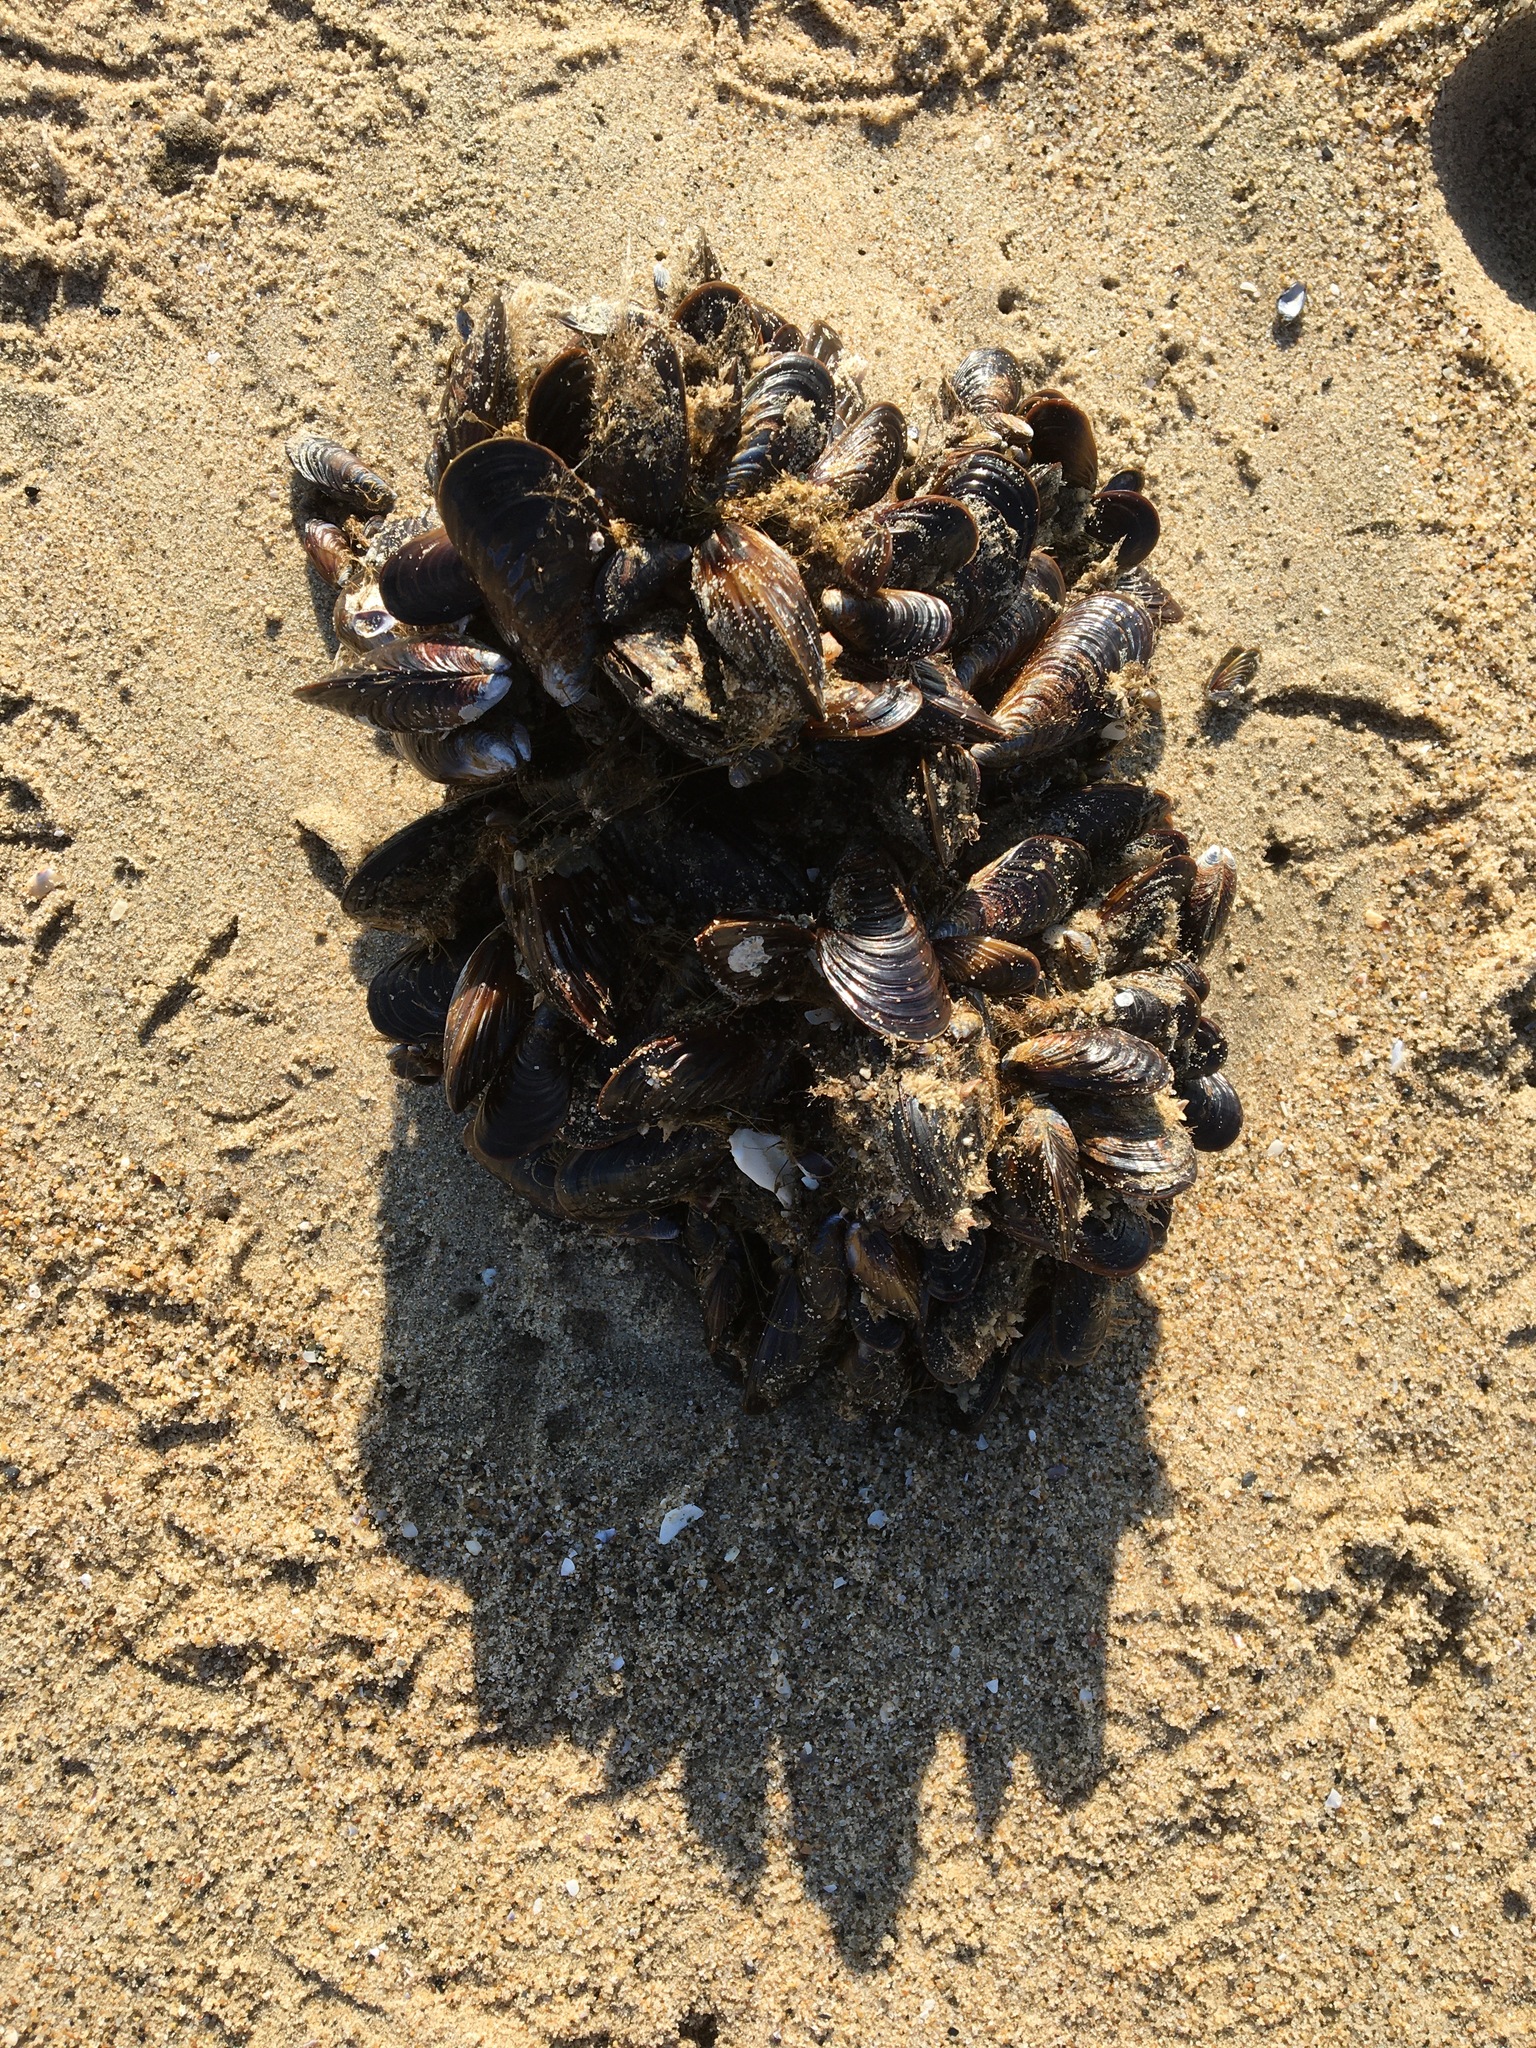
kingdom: Animalia
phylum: Mollusca
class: Bivalvia
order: Mytilida
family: Mytilidae
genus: Mytilus
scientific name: Mytilus californianus
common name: California mussel
